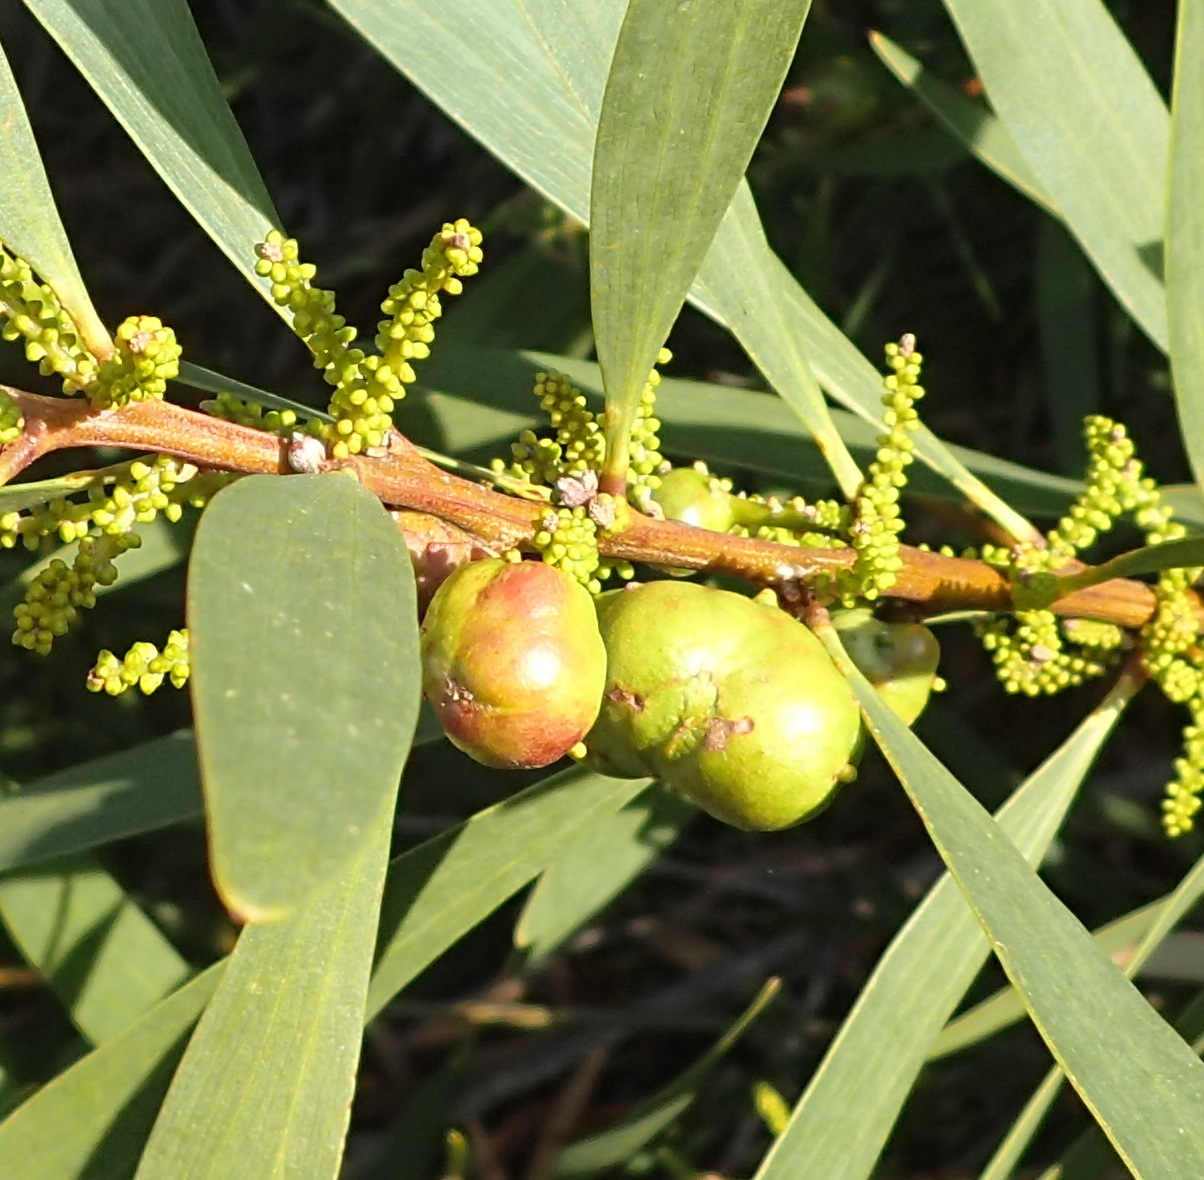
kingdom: Animalia
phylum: Arthropoda
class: Insecta
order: Hymenoptera
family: Pteromalidae
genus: Trichilogaster
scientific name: Trichilogaster acaciaelongifoliae
